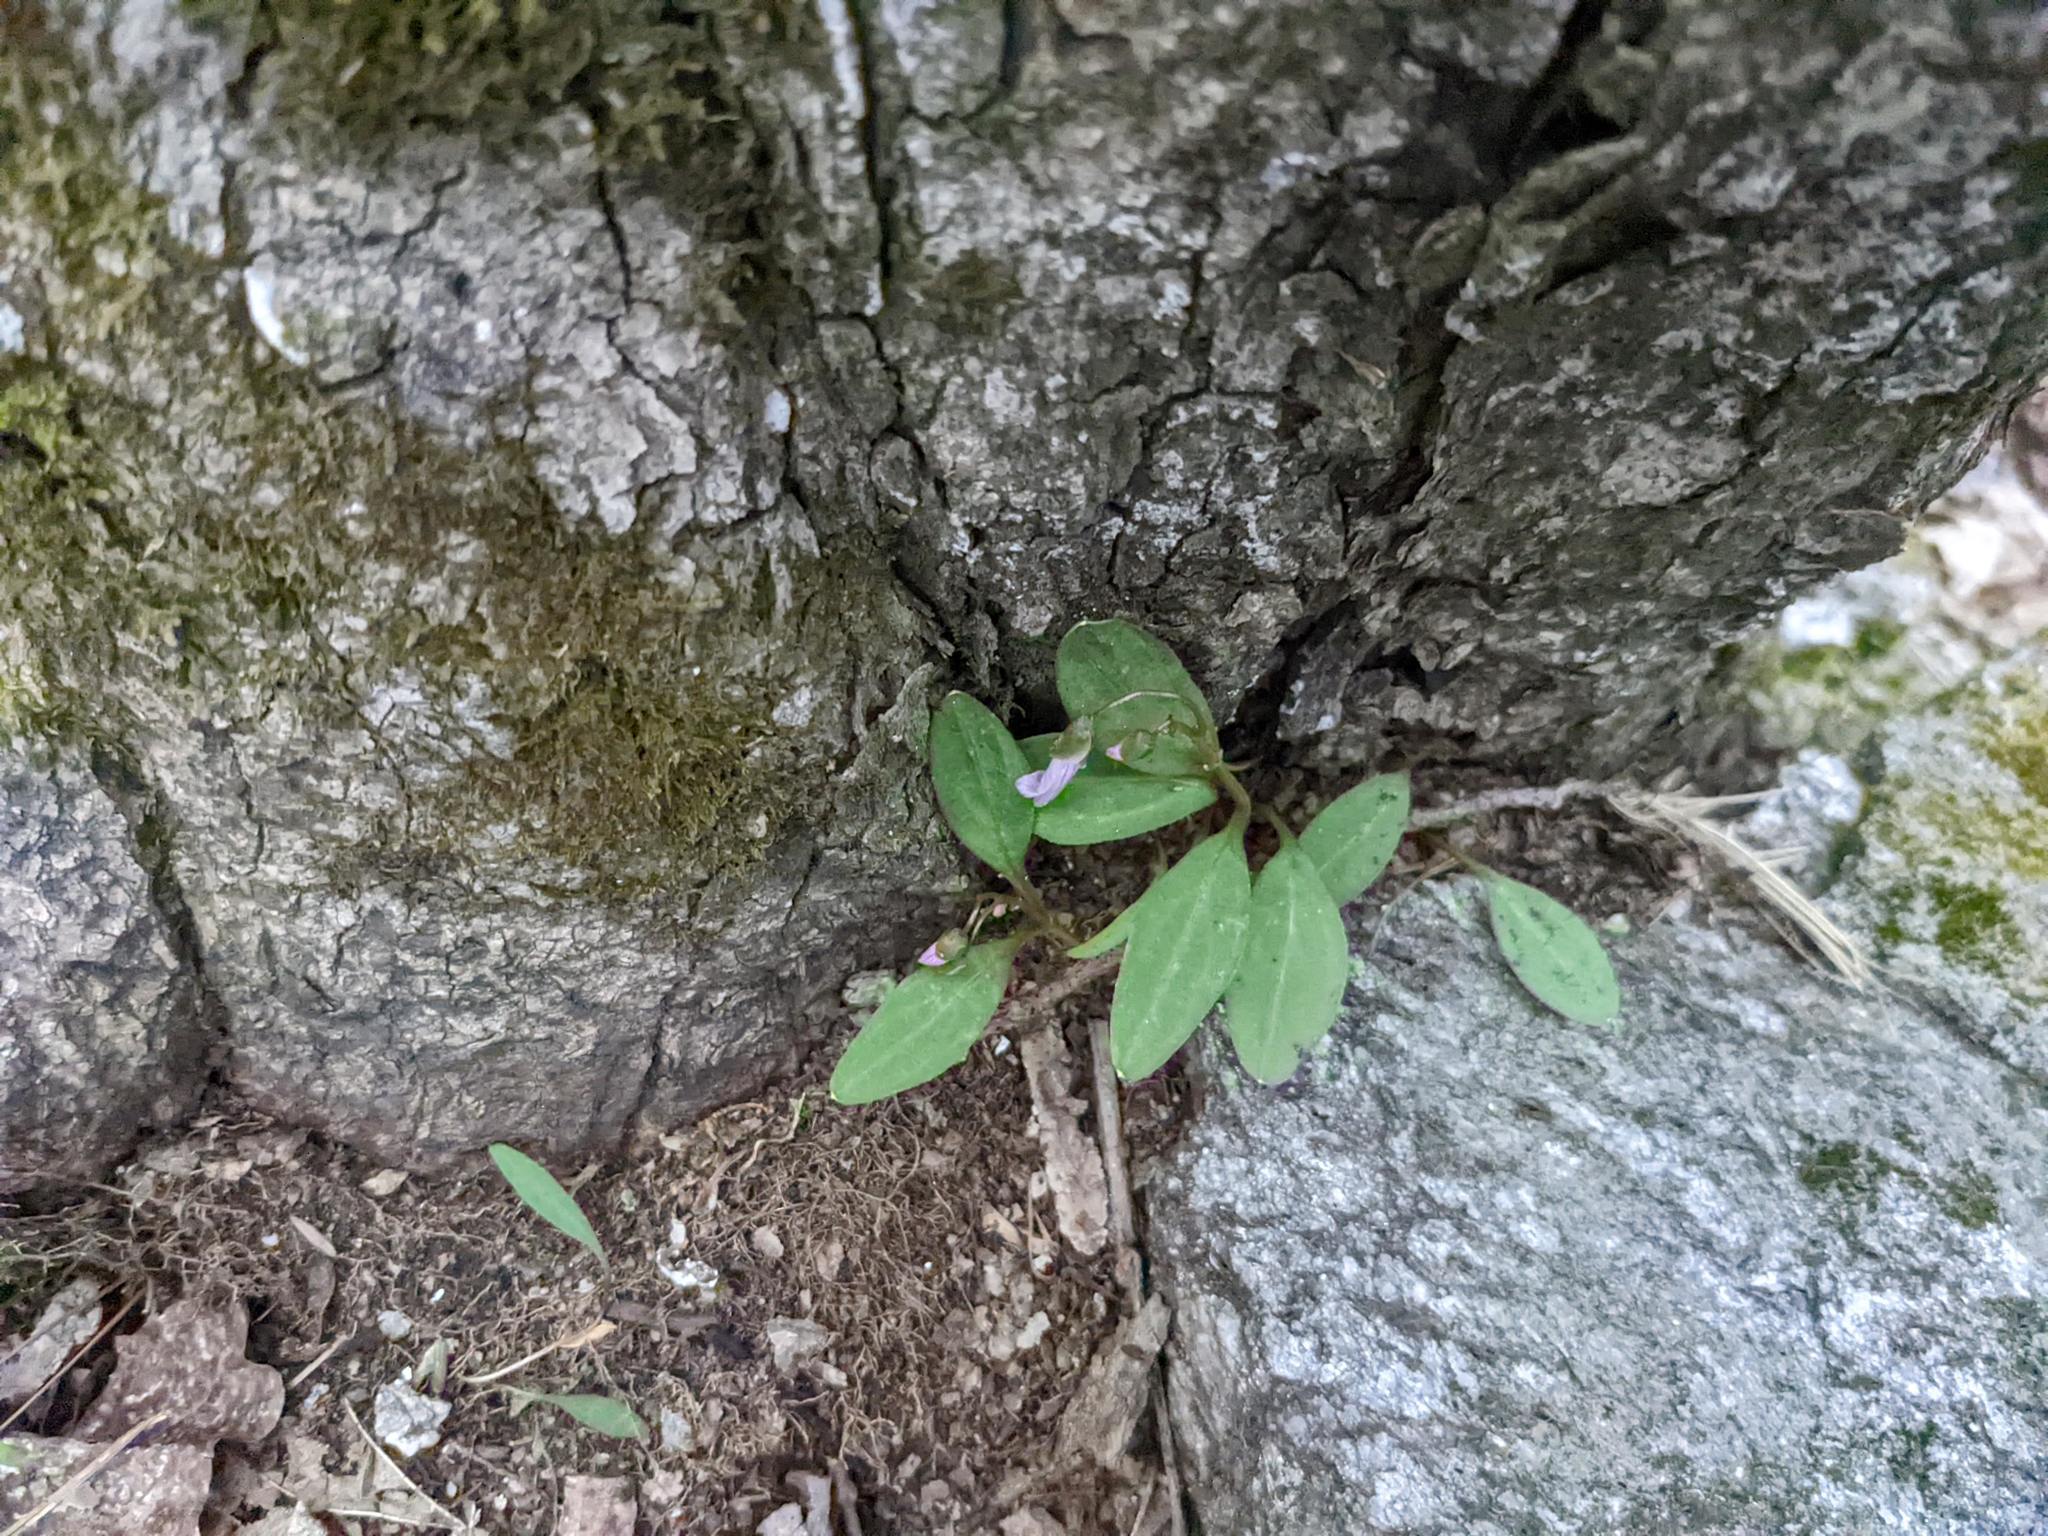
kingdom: Plantae
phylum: Tracheophyta
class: Magnoliopsida
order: Caryophyllales
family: Montiaceae
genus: Claytonia
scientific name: Claytonia caroliniana
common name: Carolina spring beauty
